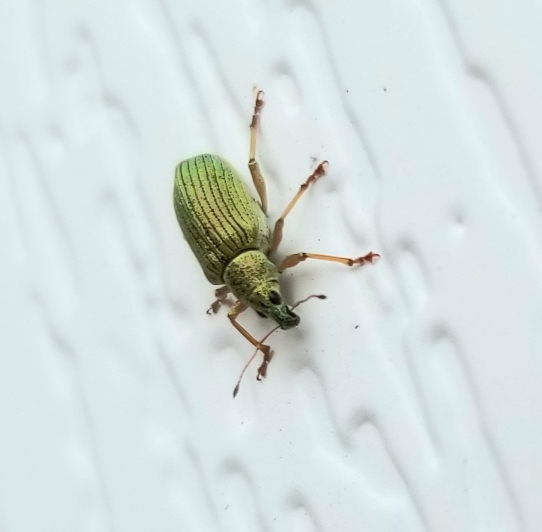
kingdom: Animalia
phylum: Arthropoda
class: Insecta
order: Coleoptera
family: Curculionidae
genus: Polydrusus
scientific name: Polydrusus formosus
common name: Weevil
